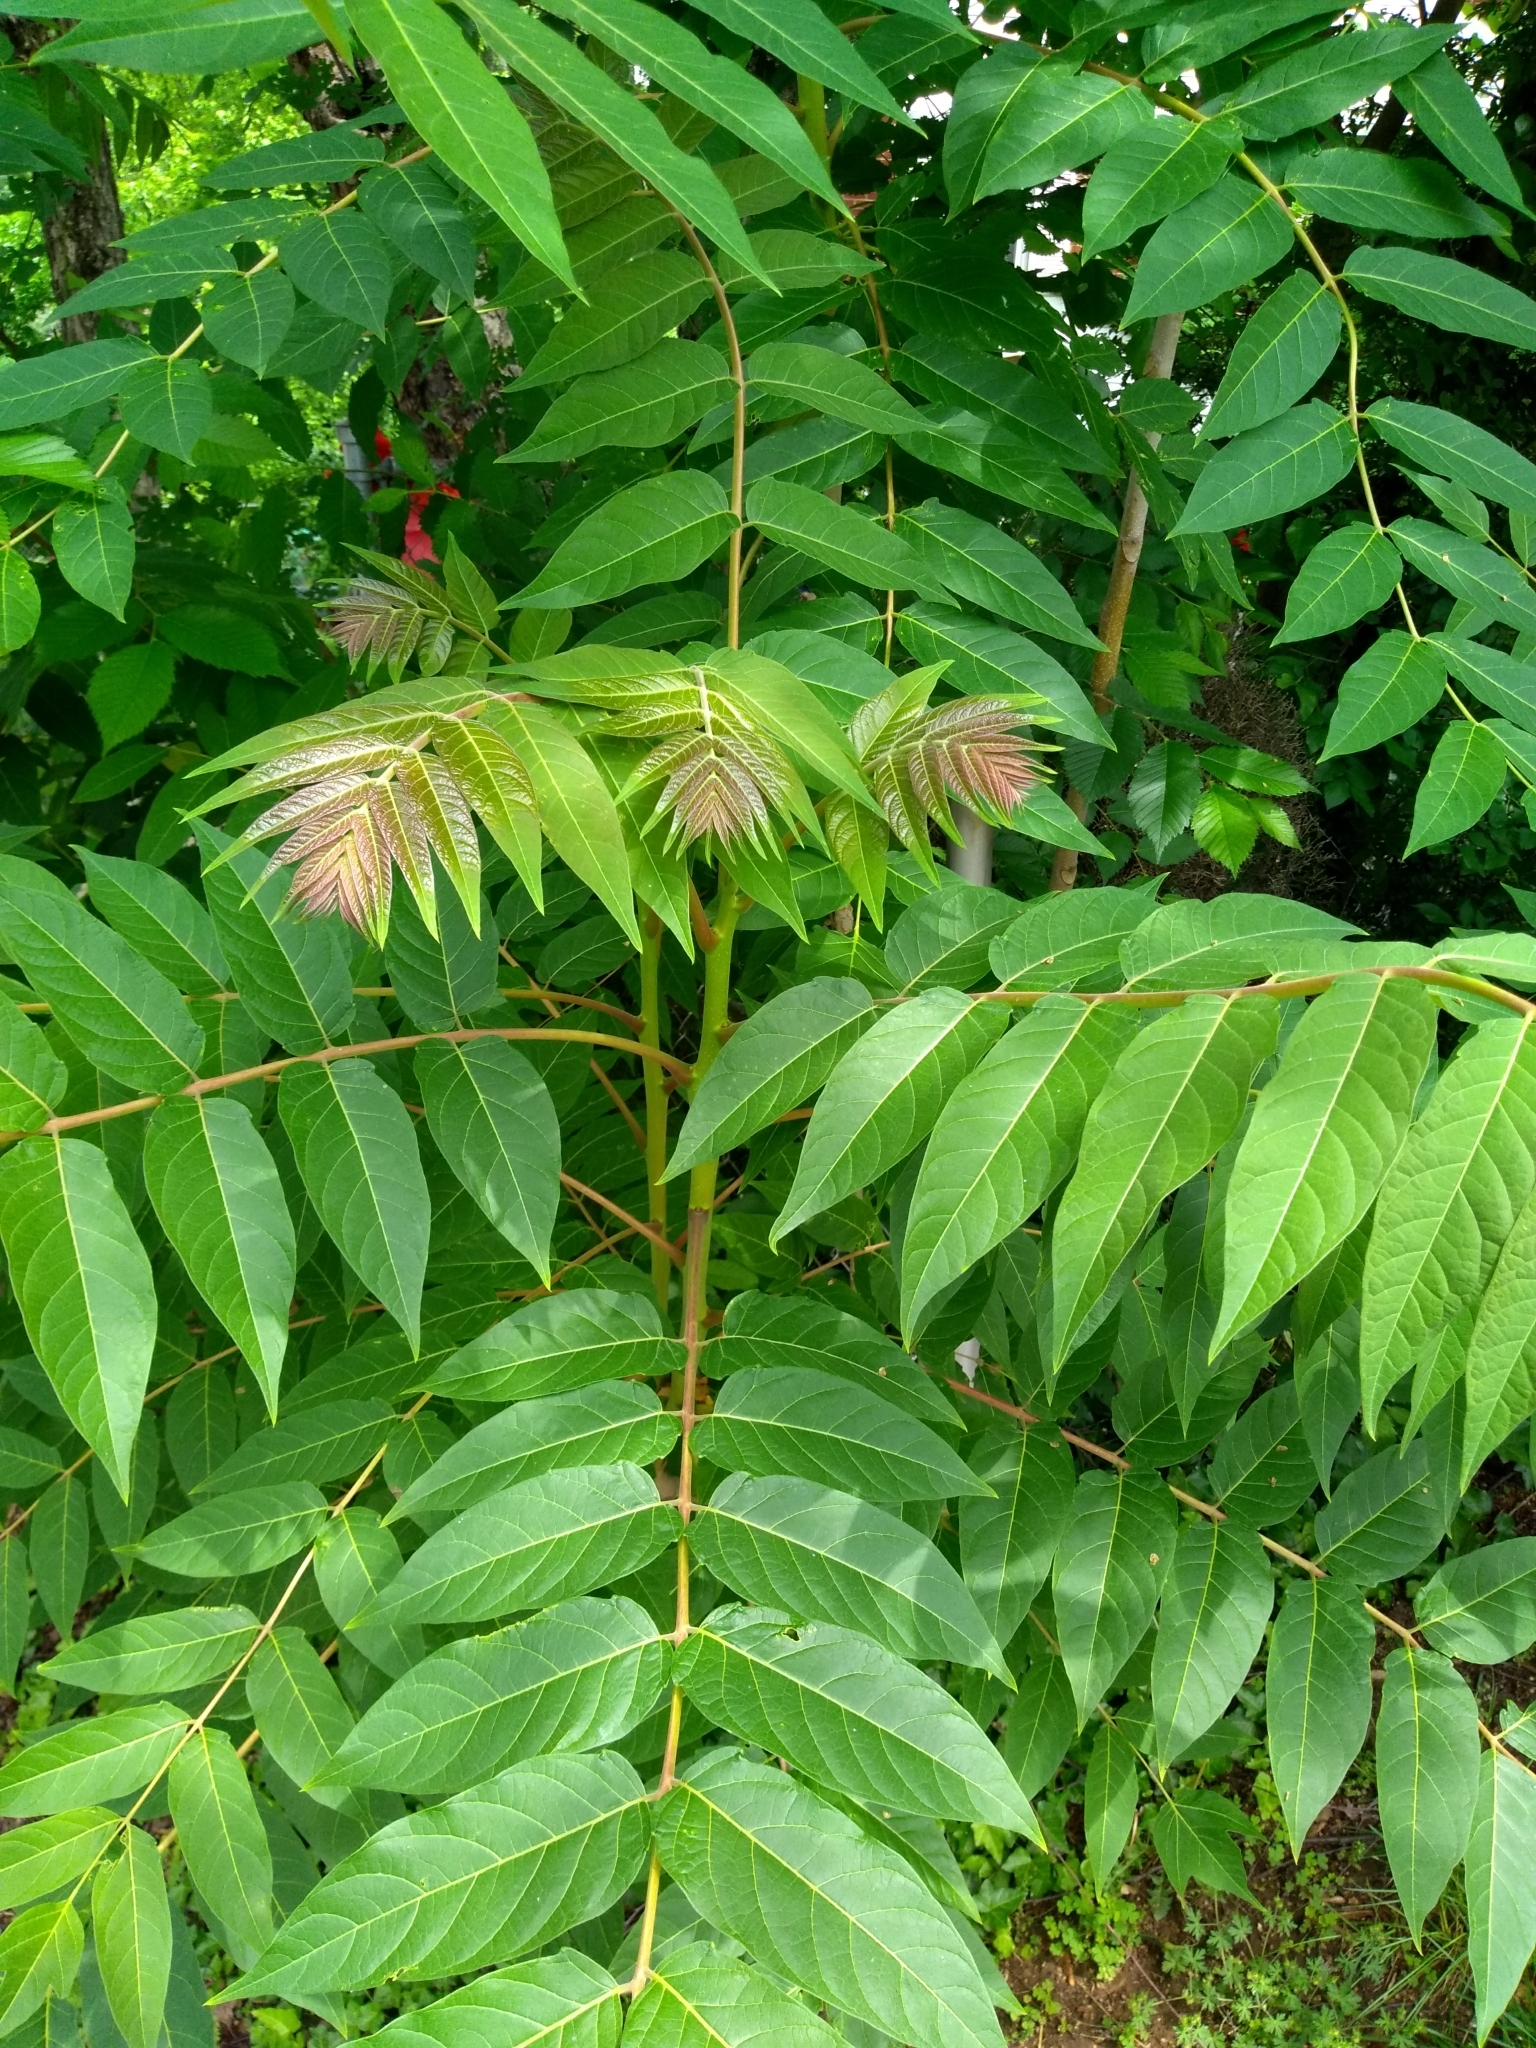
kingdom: Plantae
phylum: Tracheophyta
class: Magnoliopsida
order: Sapindales
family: Simaroubaceae
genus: Ailanthus
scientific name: Ailanthus altissima
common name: Tree-of-heaven
